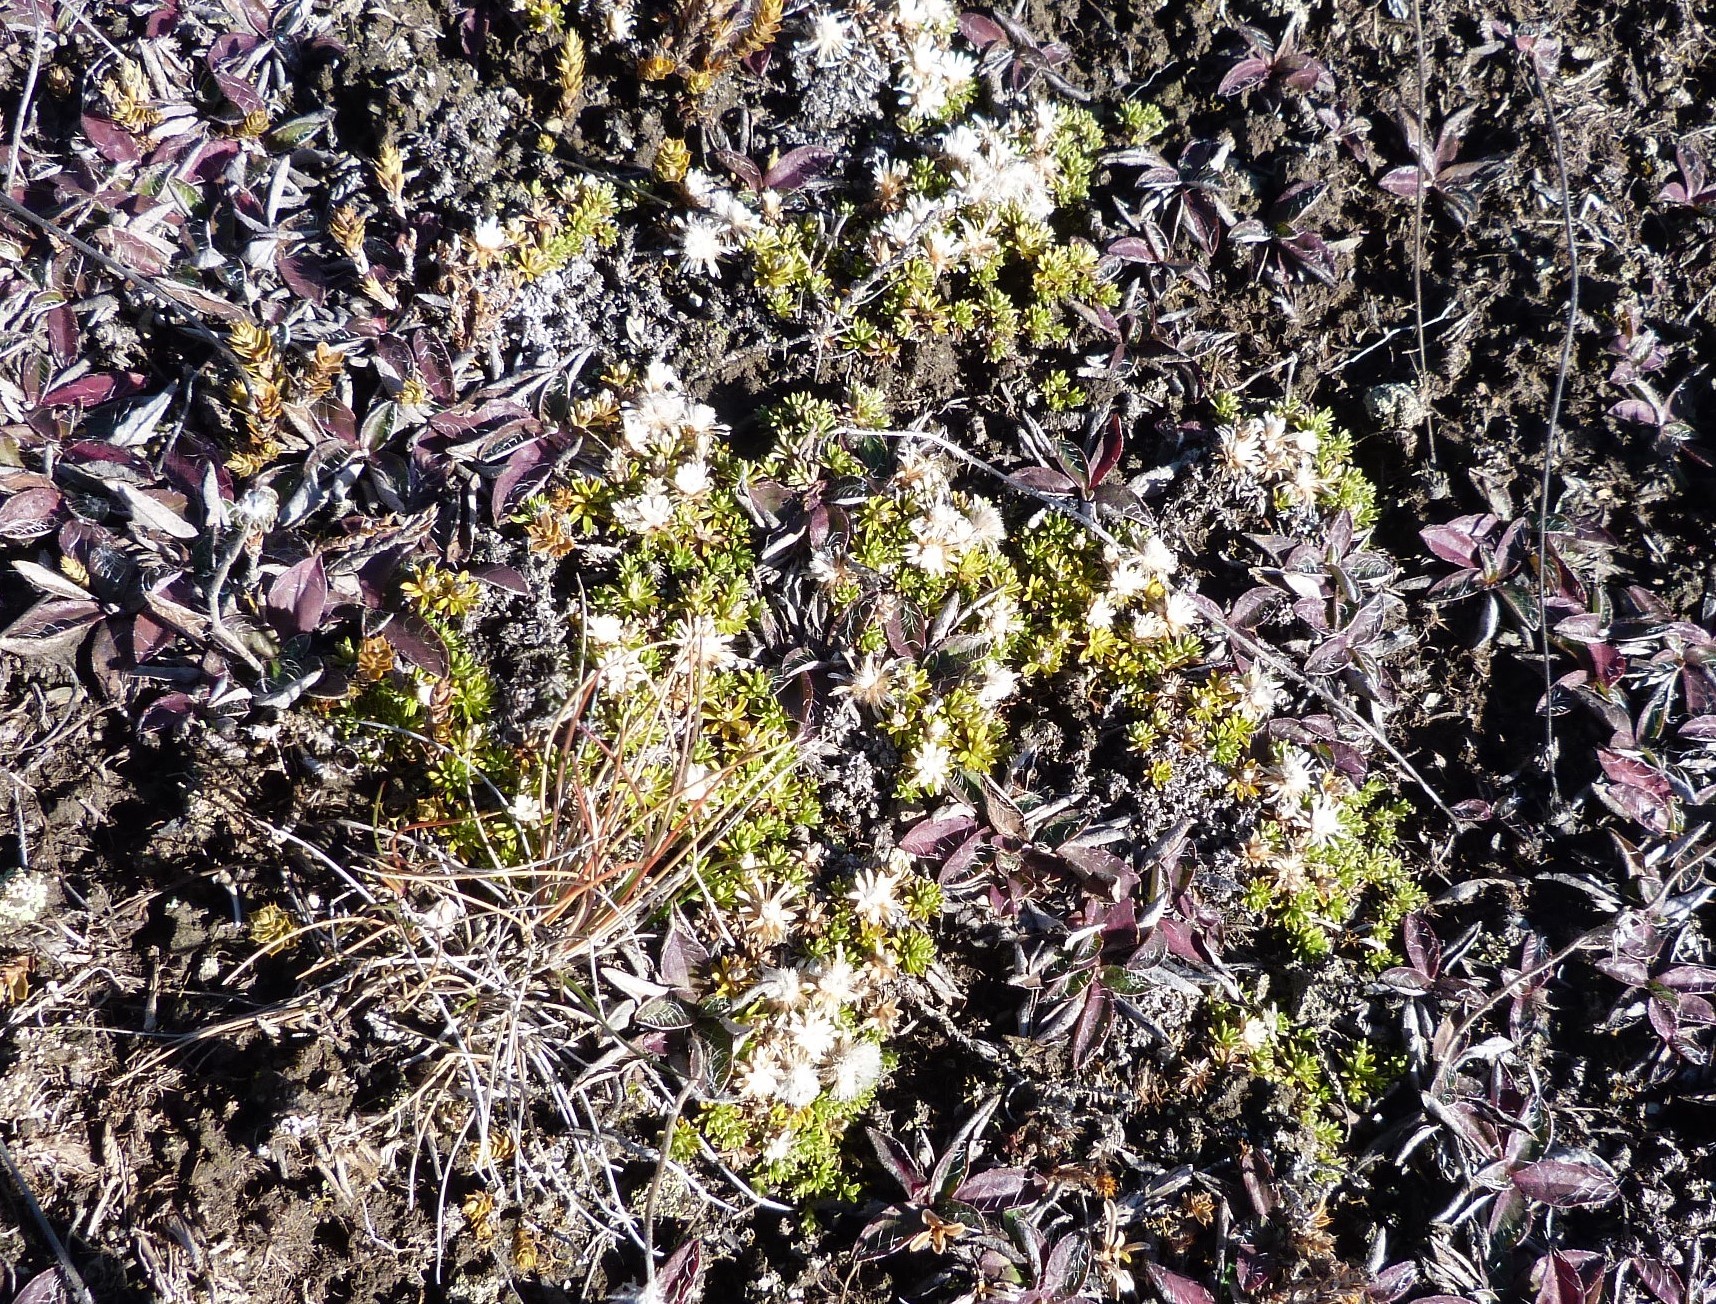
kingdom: Plantae
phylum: Tracheophyta
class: Magnoliopsida
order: Asterales
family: Asteraceae
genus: Raoulia
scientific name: Raoulia subsericea
